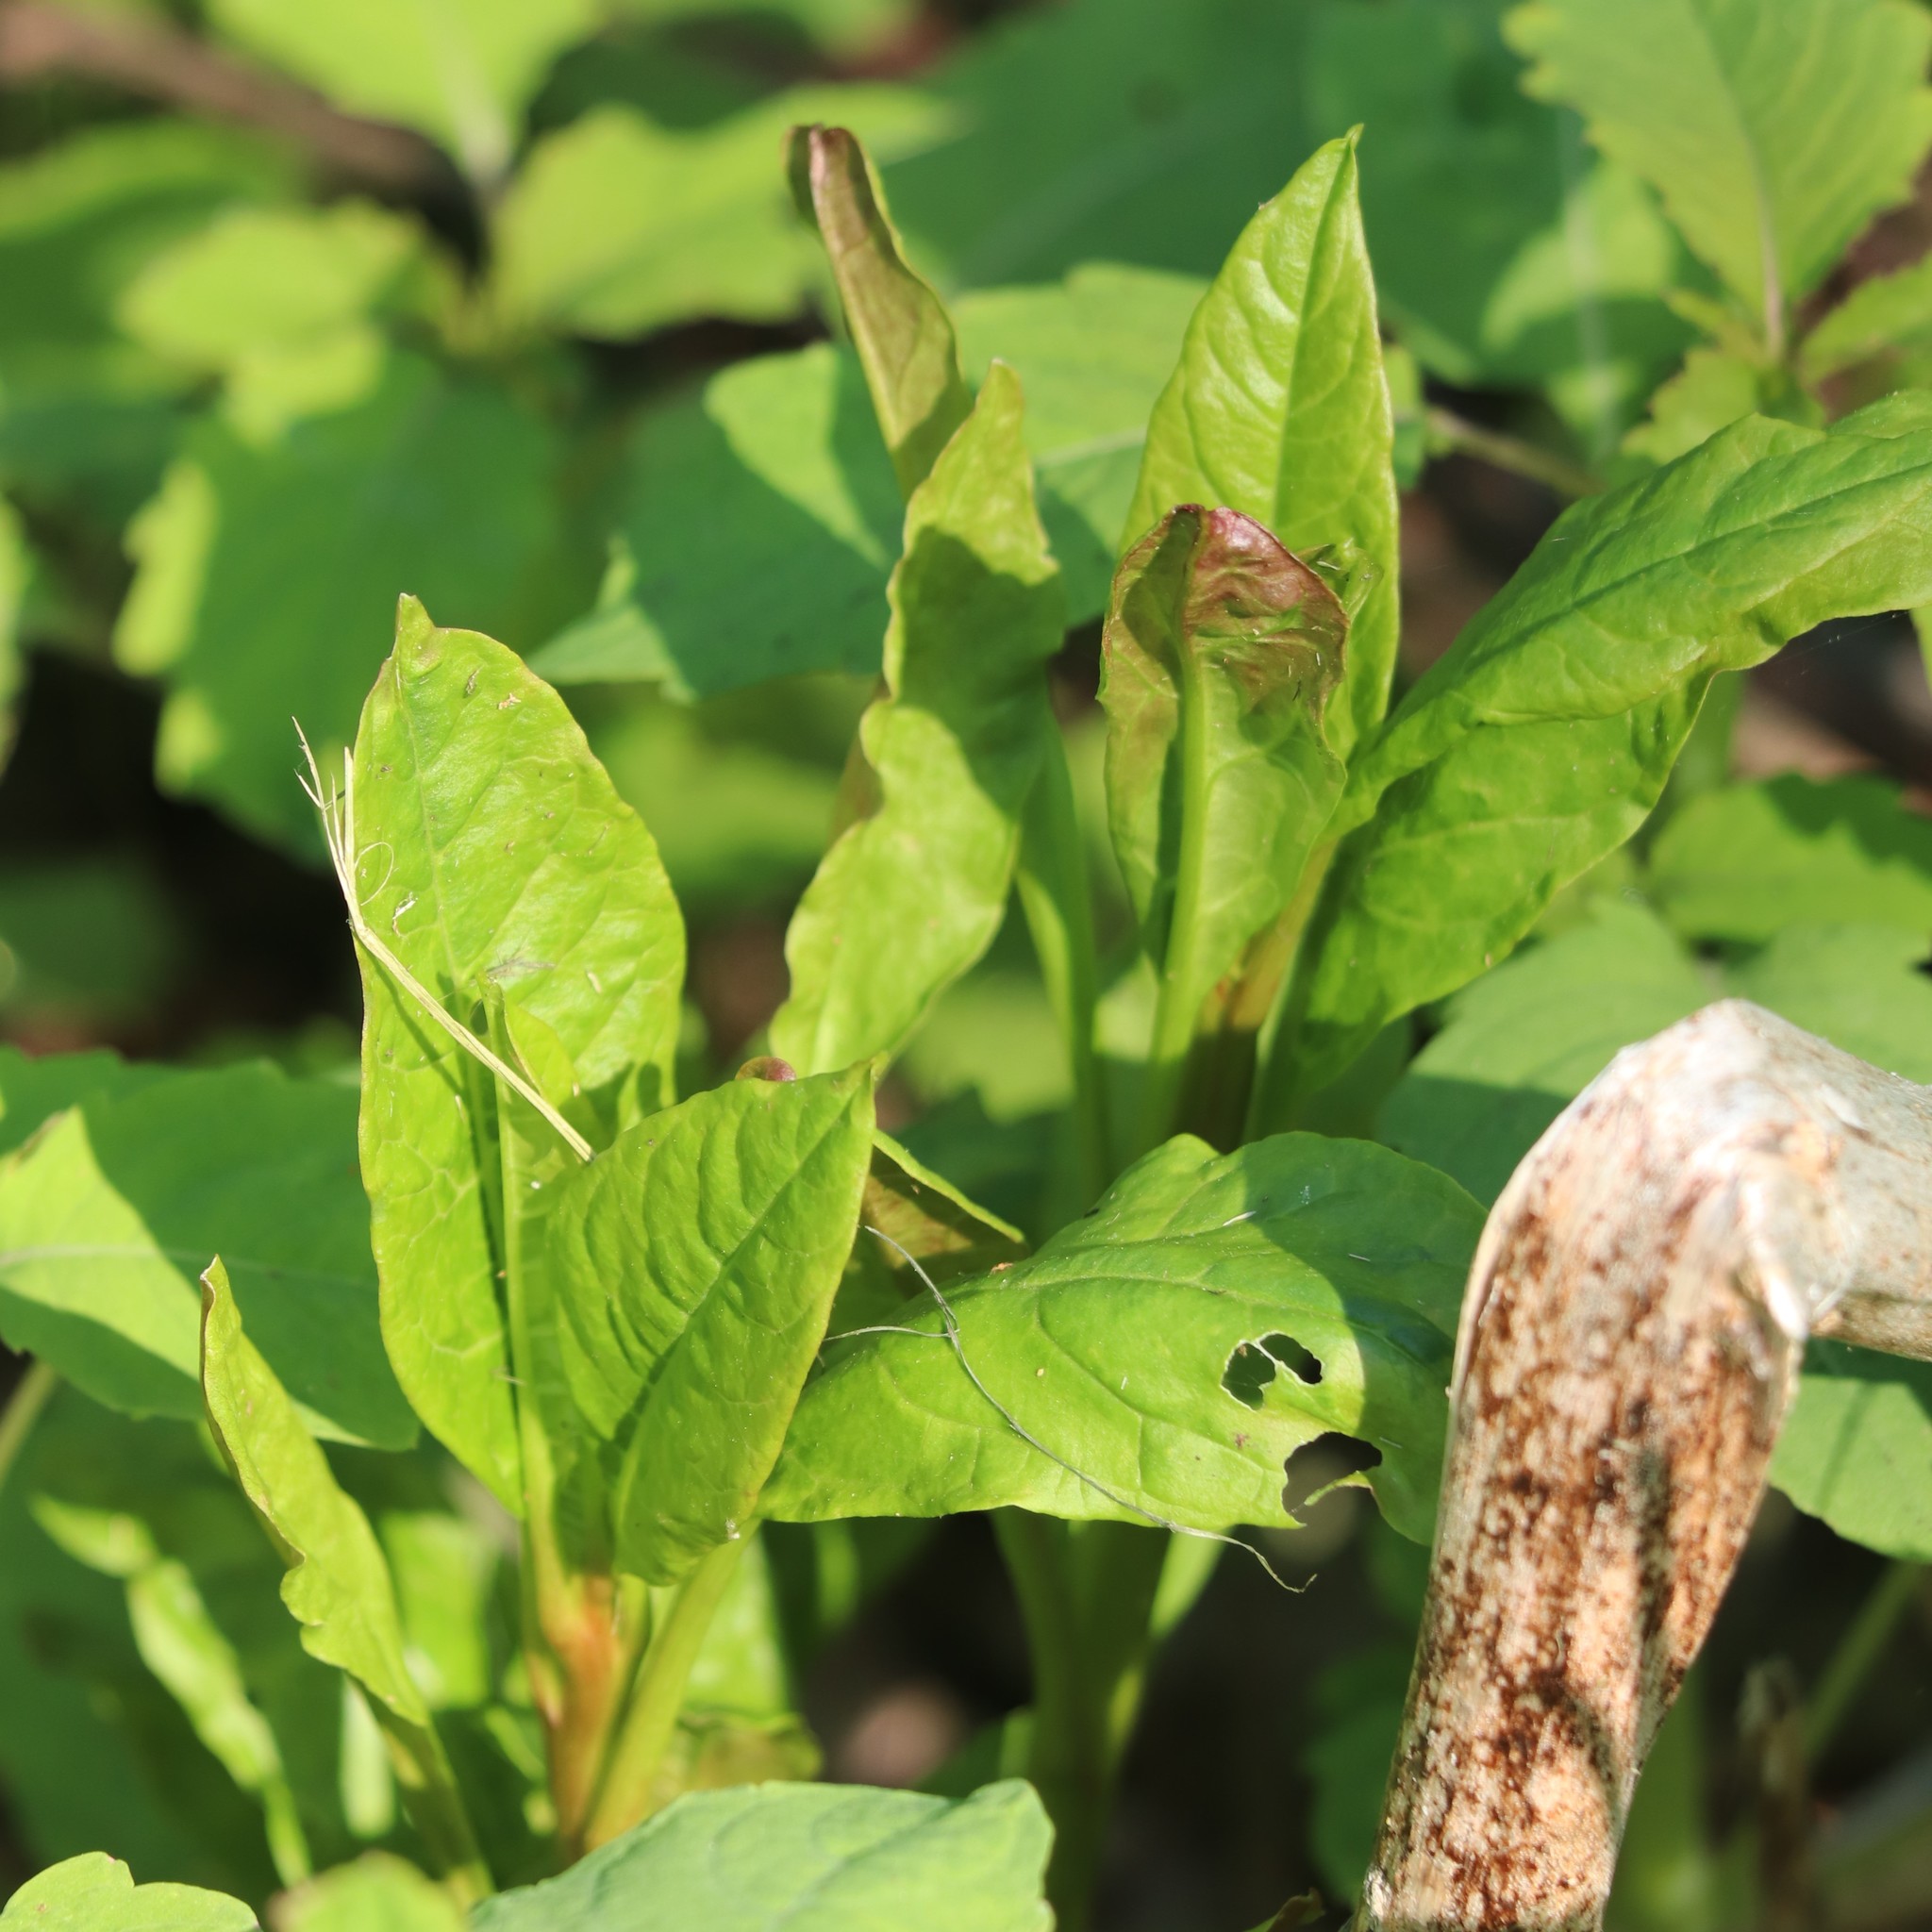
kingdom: Plantae
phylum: Tracheophyta
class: Magnoliopsida
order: Caryophyllales
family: Phytolaccaceae
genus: Phytolacca
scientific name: Phytolacca americana
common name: American pokeweed
